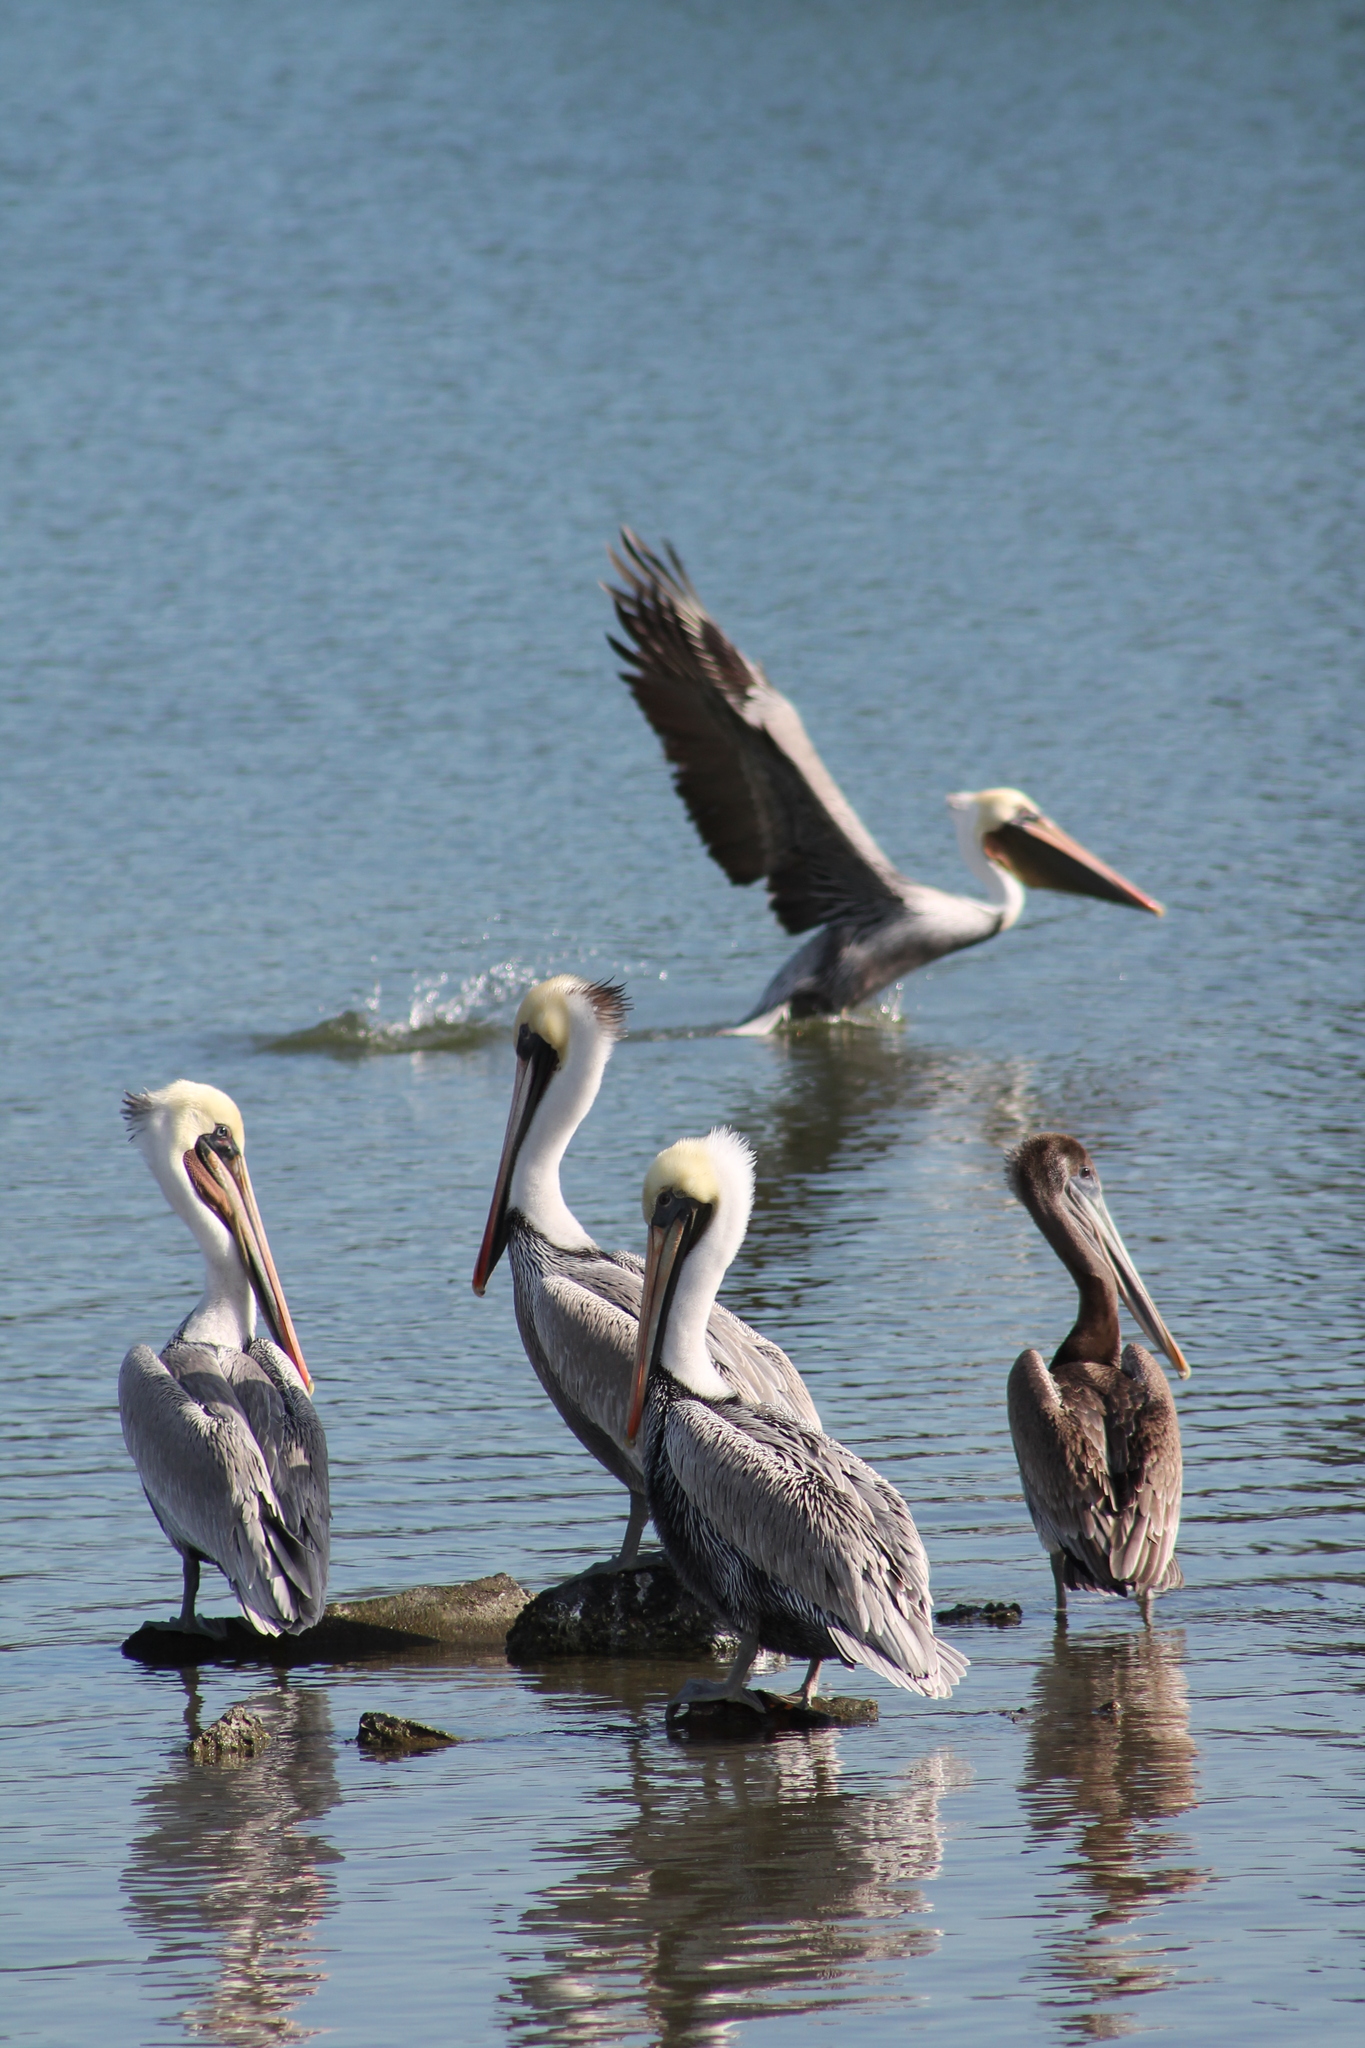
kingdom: Animalia
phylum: Chordata
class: Aves
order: Pelecaniformes
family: Pelecanidae
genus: Pelecanus
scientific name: Pelecanus occidentalis
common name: Brown pelican
